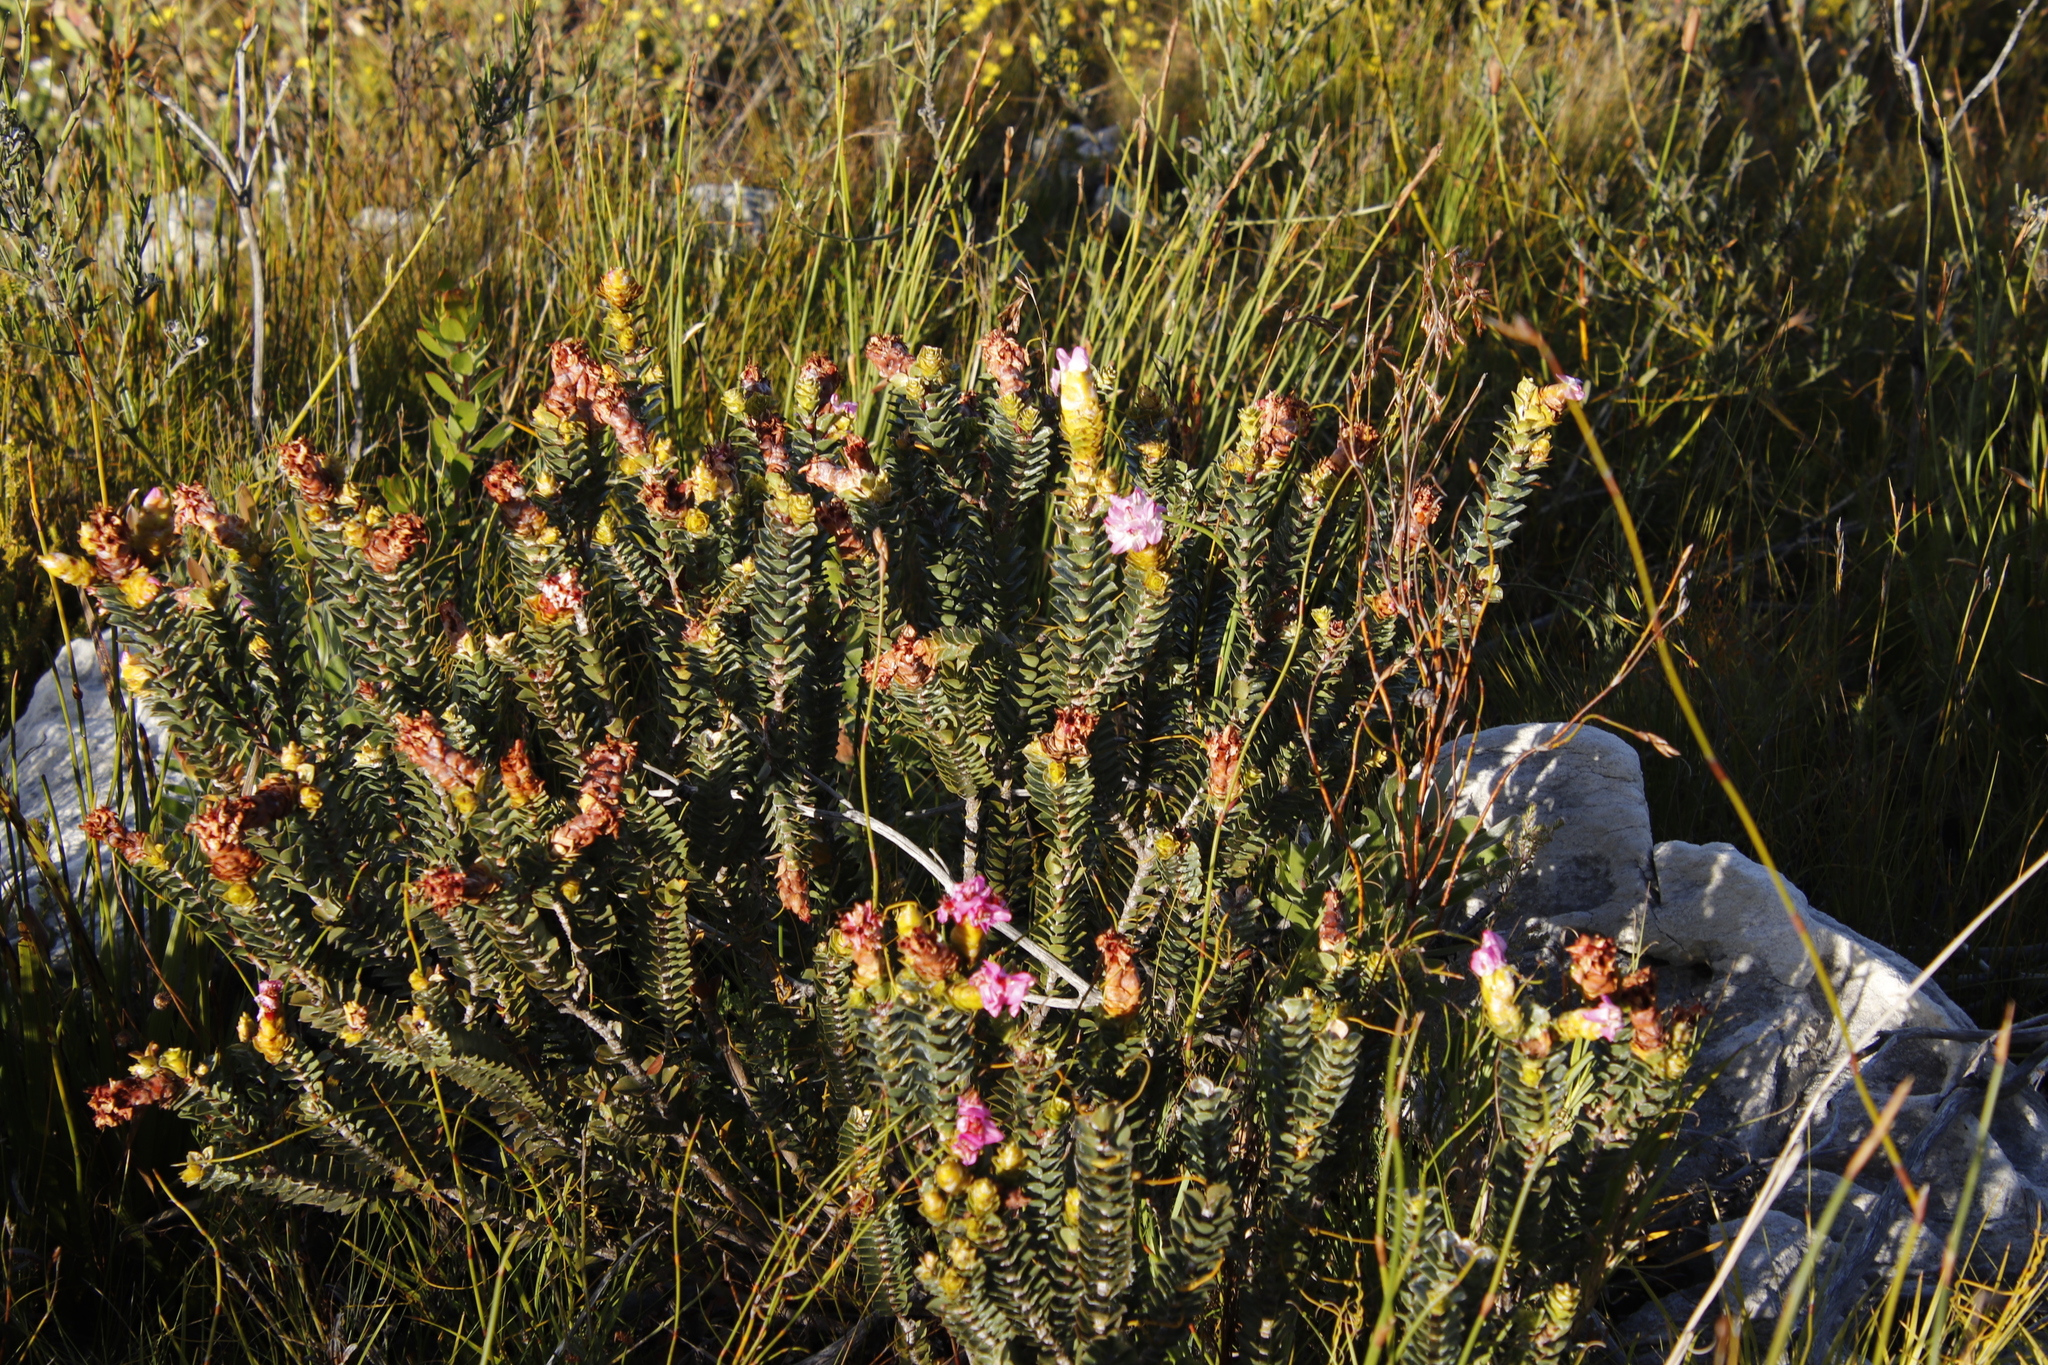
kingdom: Plantae
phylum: Tracheophyta
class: Magnoliopsida
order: Myrtales
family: Penaeaceae
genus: Saltera
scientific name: Saltera sarcocolla
